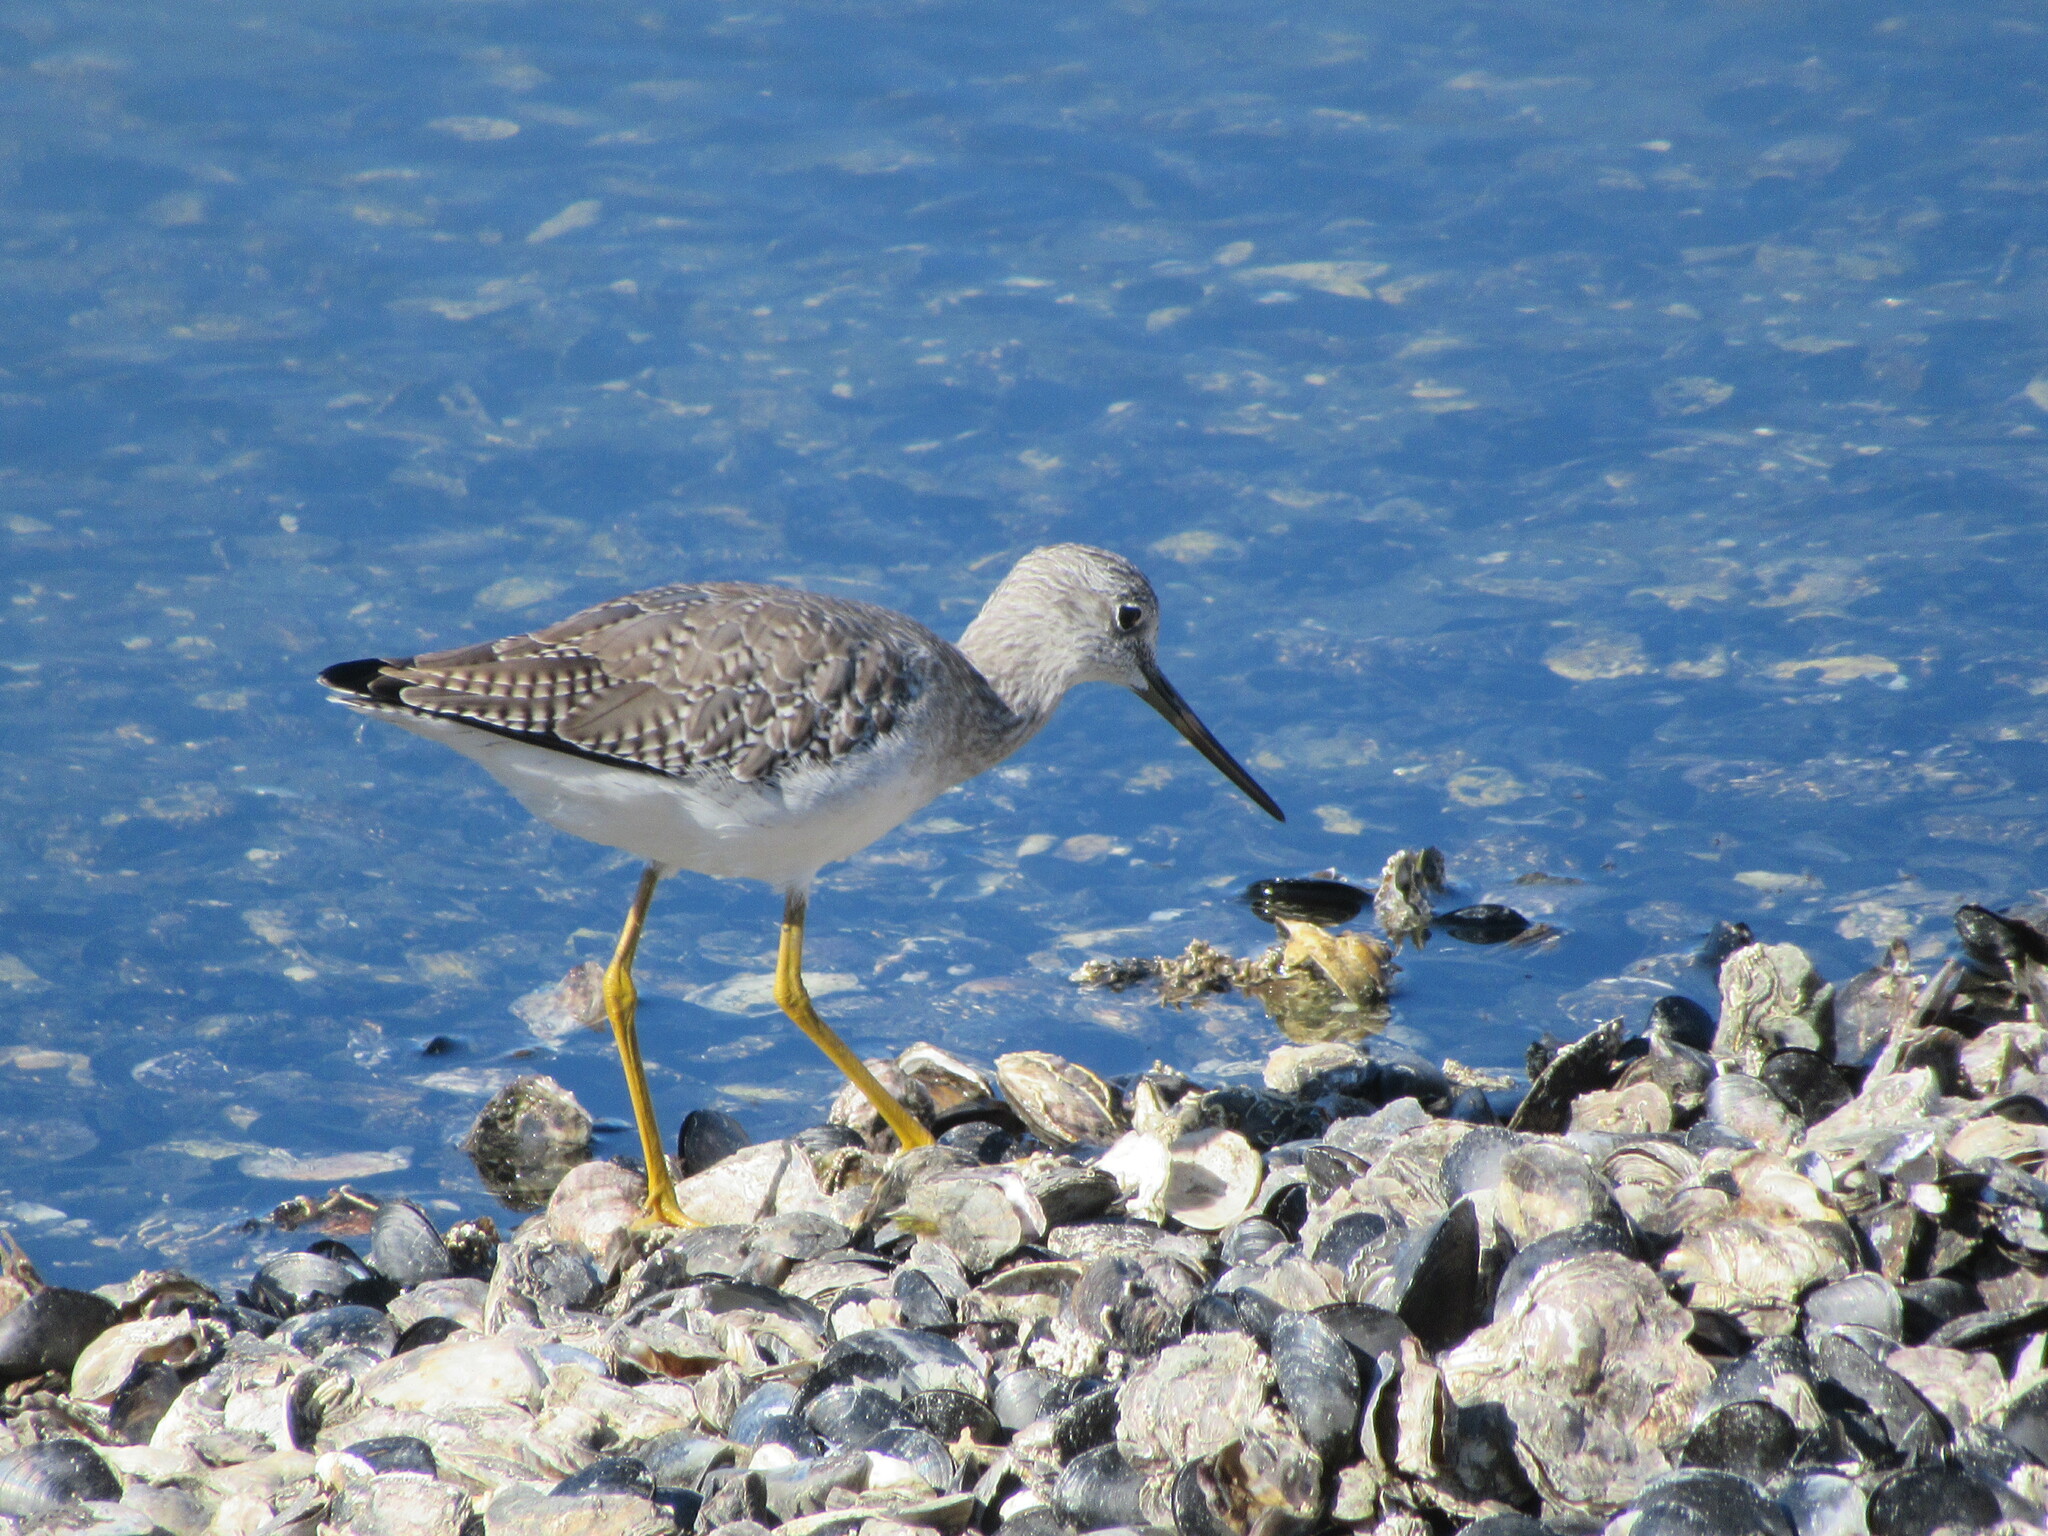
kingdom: Animalia
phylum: Chordata
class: Aves
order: Charadriiformes
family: Scolopacidae
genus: Tringa
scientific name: Tringa melanoleuca
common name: Greater yellowlegs
